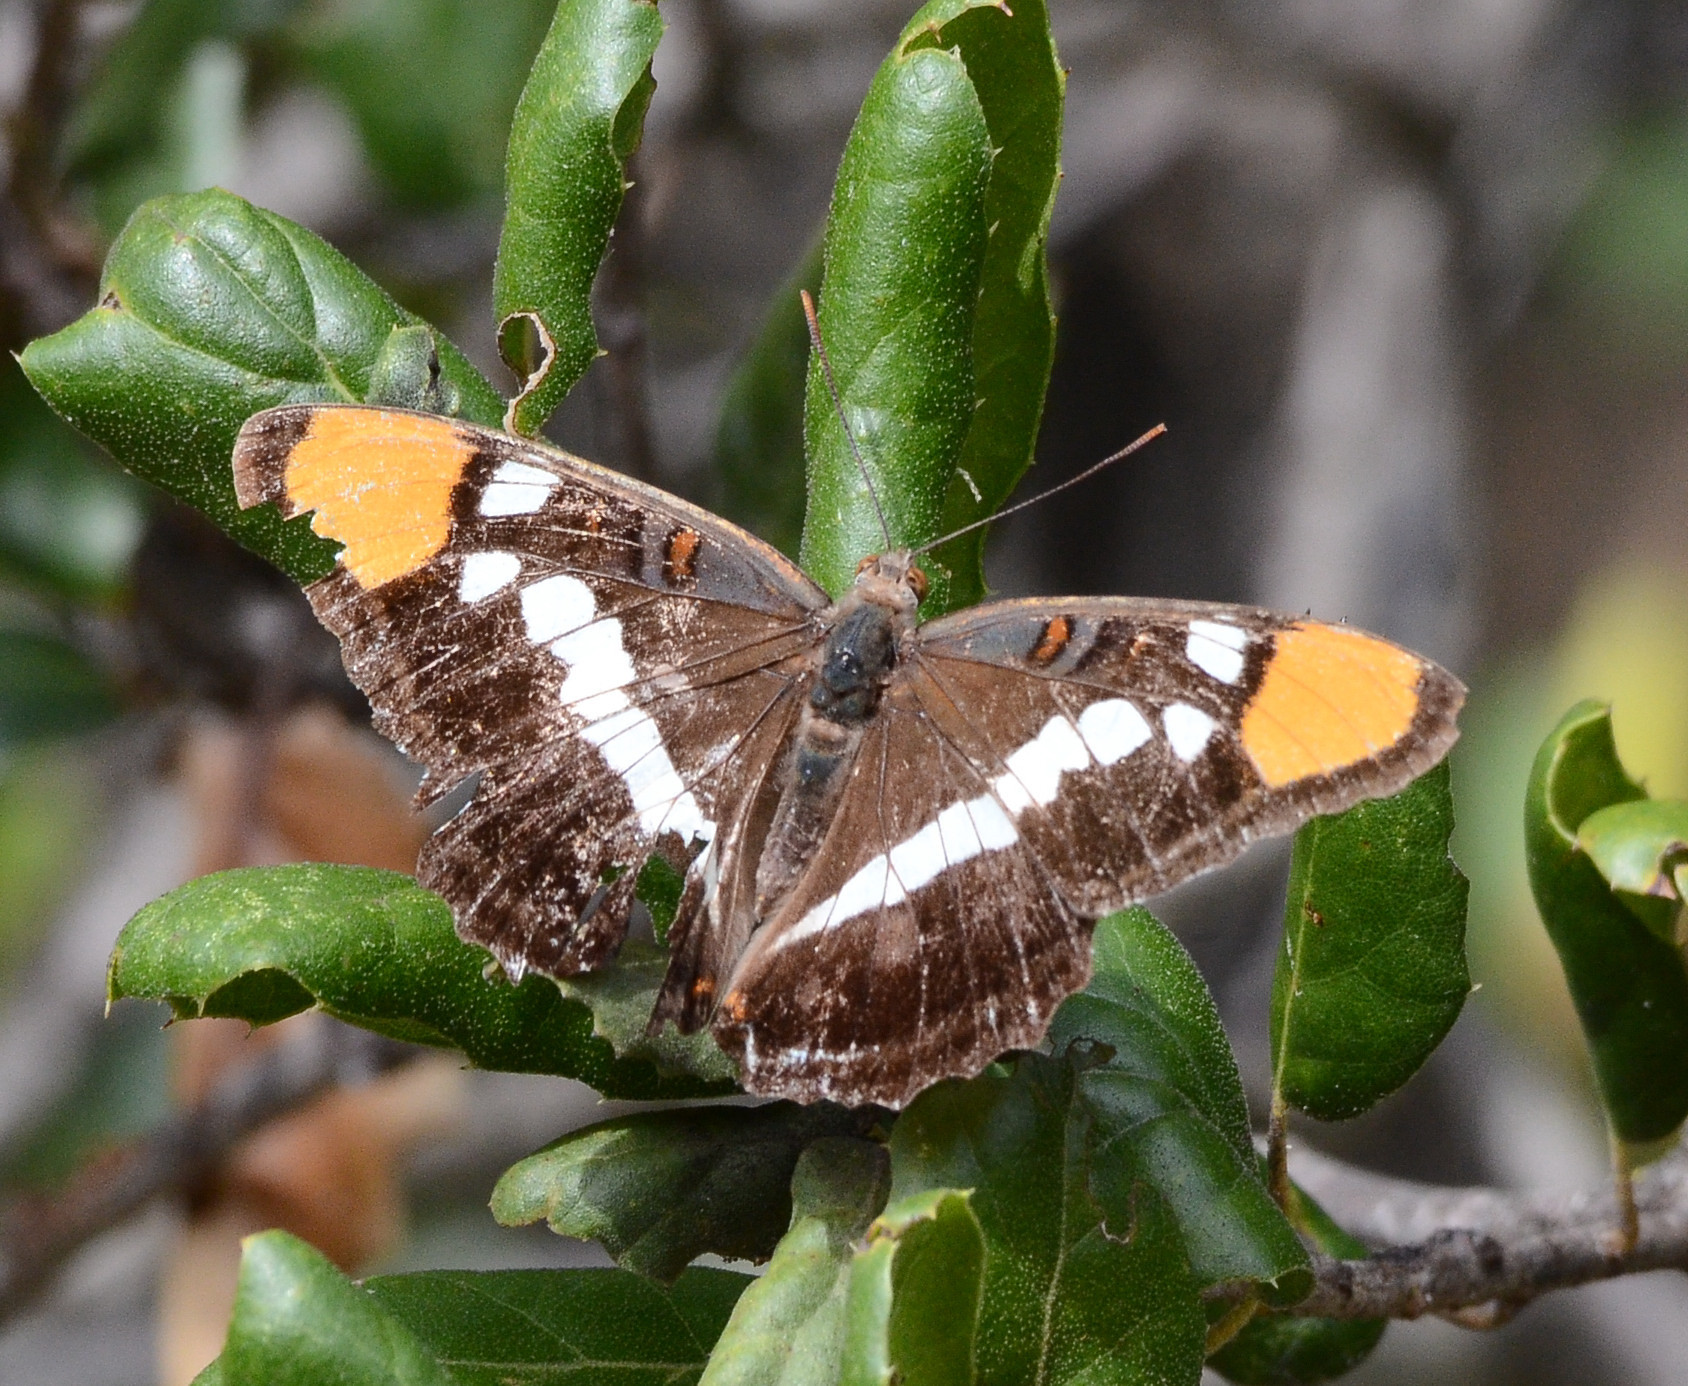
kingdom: Animalia
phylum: Arthropoda
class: Insecta
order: Lepidoptera
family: Nymphalidae
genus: Limenitis
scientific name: Limenitis bredowii
